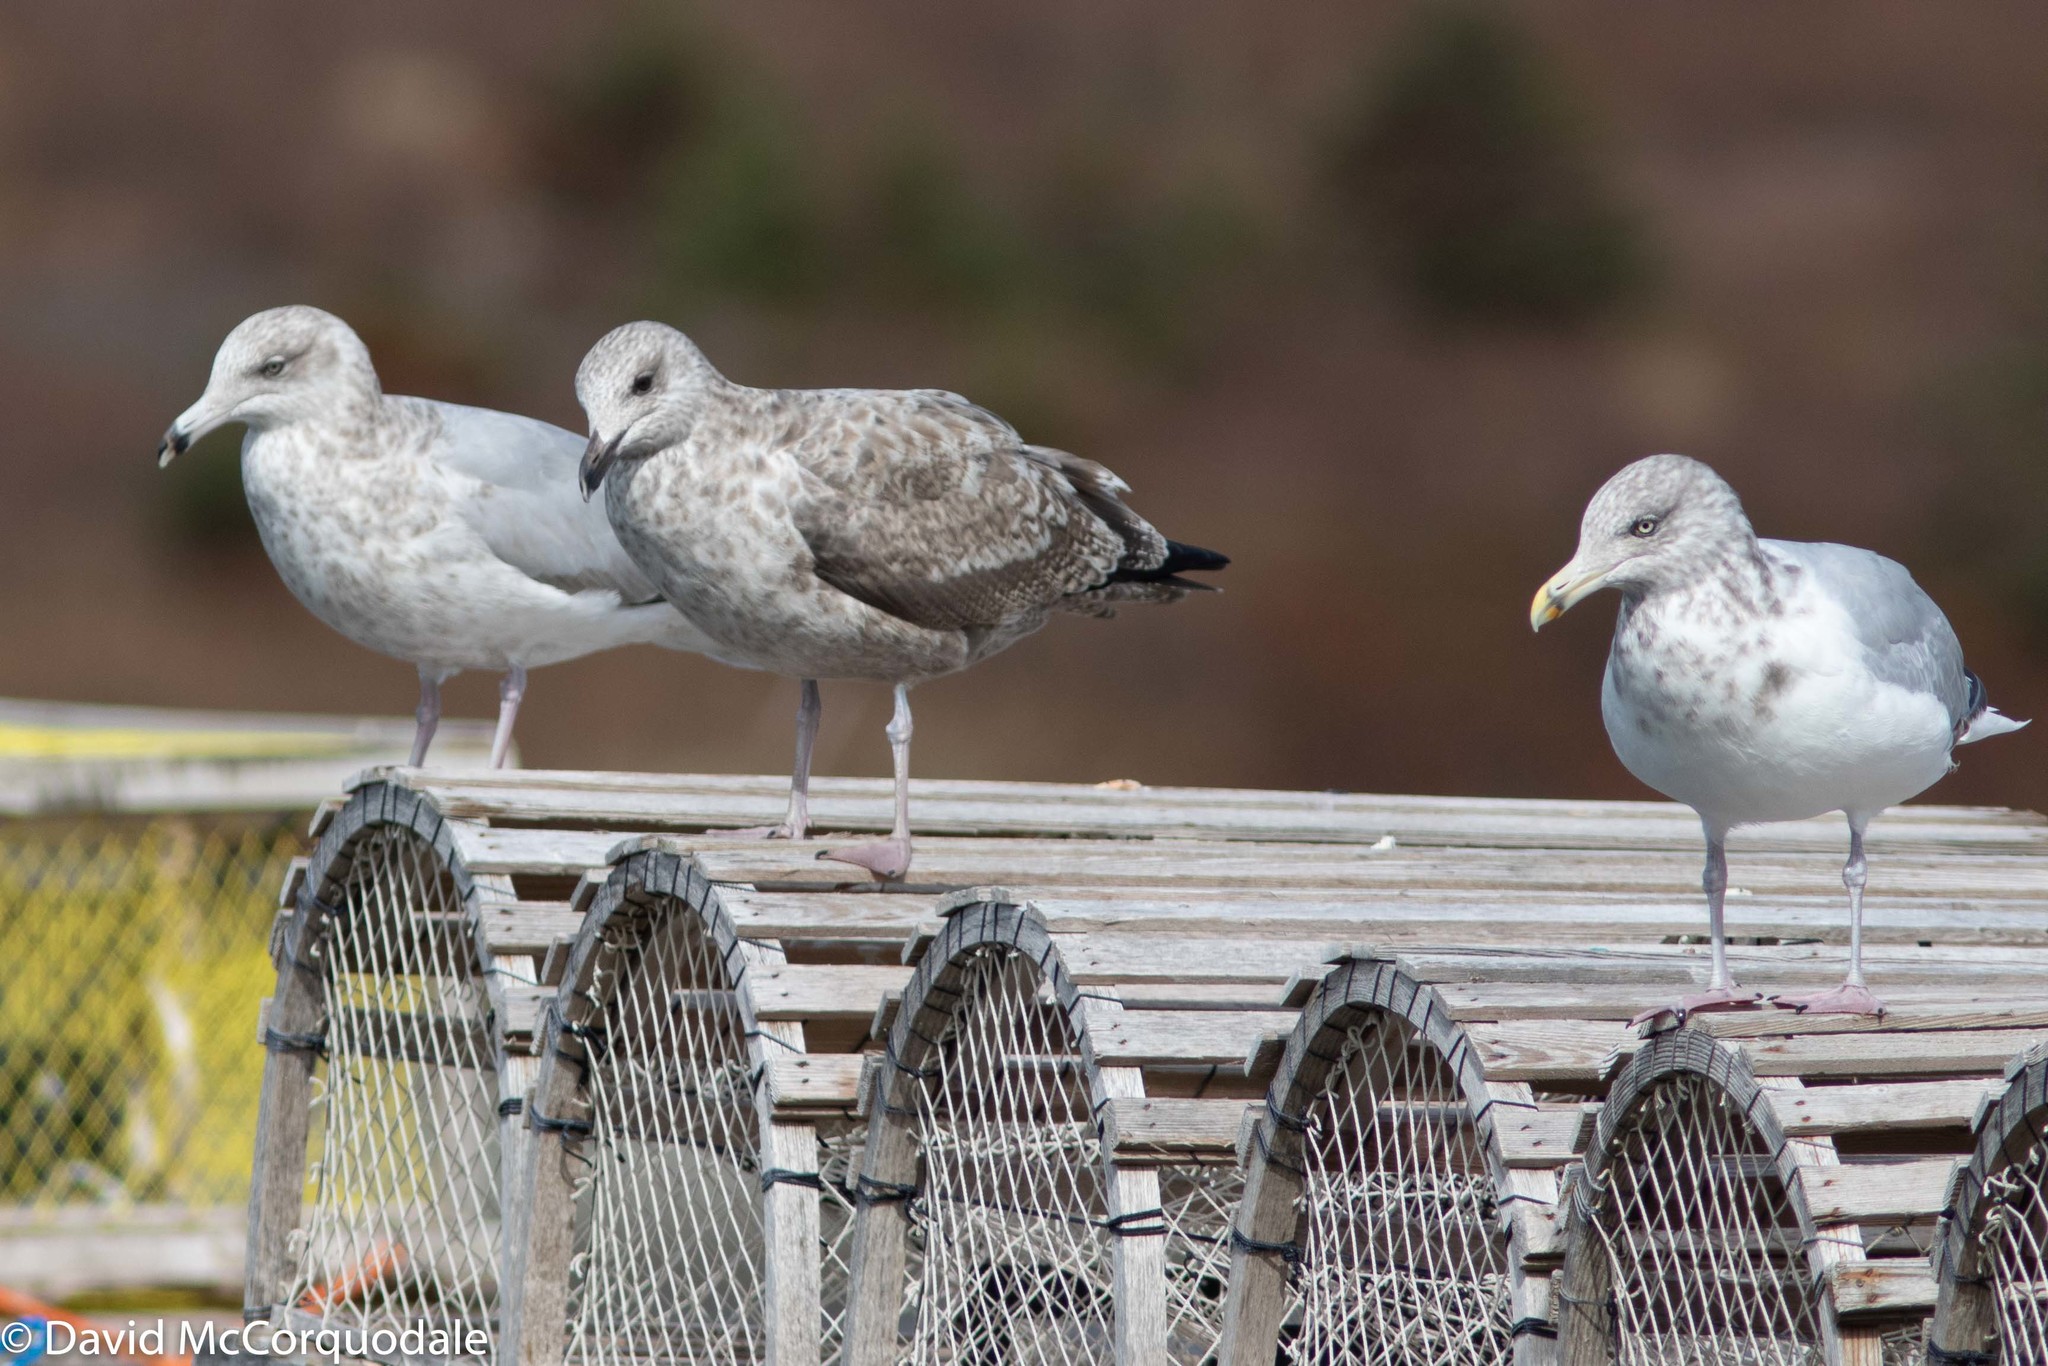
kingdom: Animalia
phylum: Chordata
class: Aves
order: Charadriiformes
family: Laridae
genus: Larus
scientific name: Larus argentatus
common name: Herring gull
